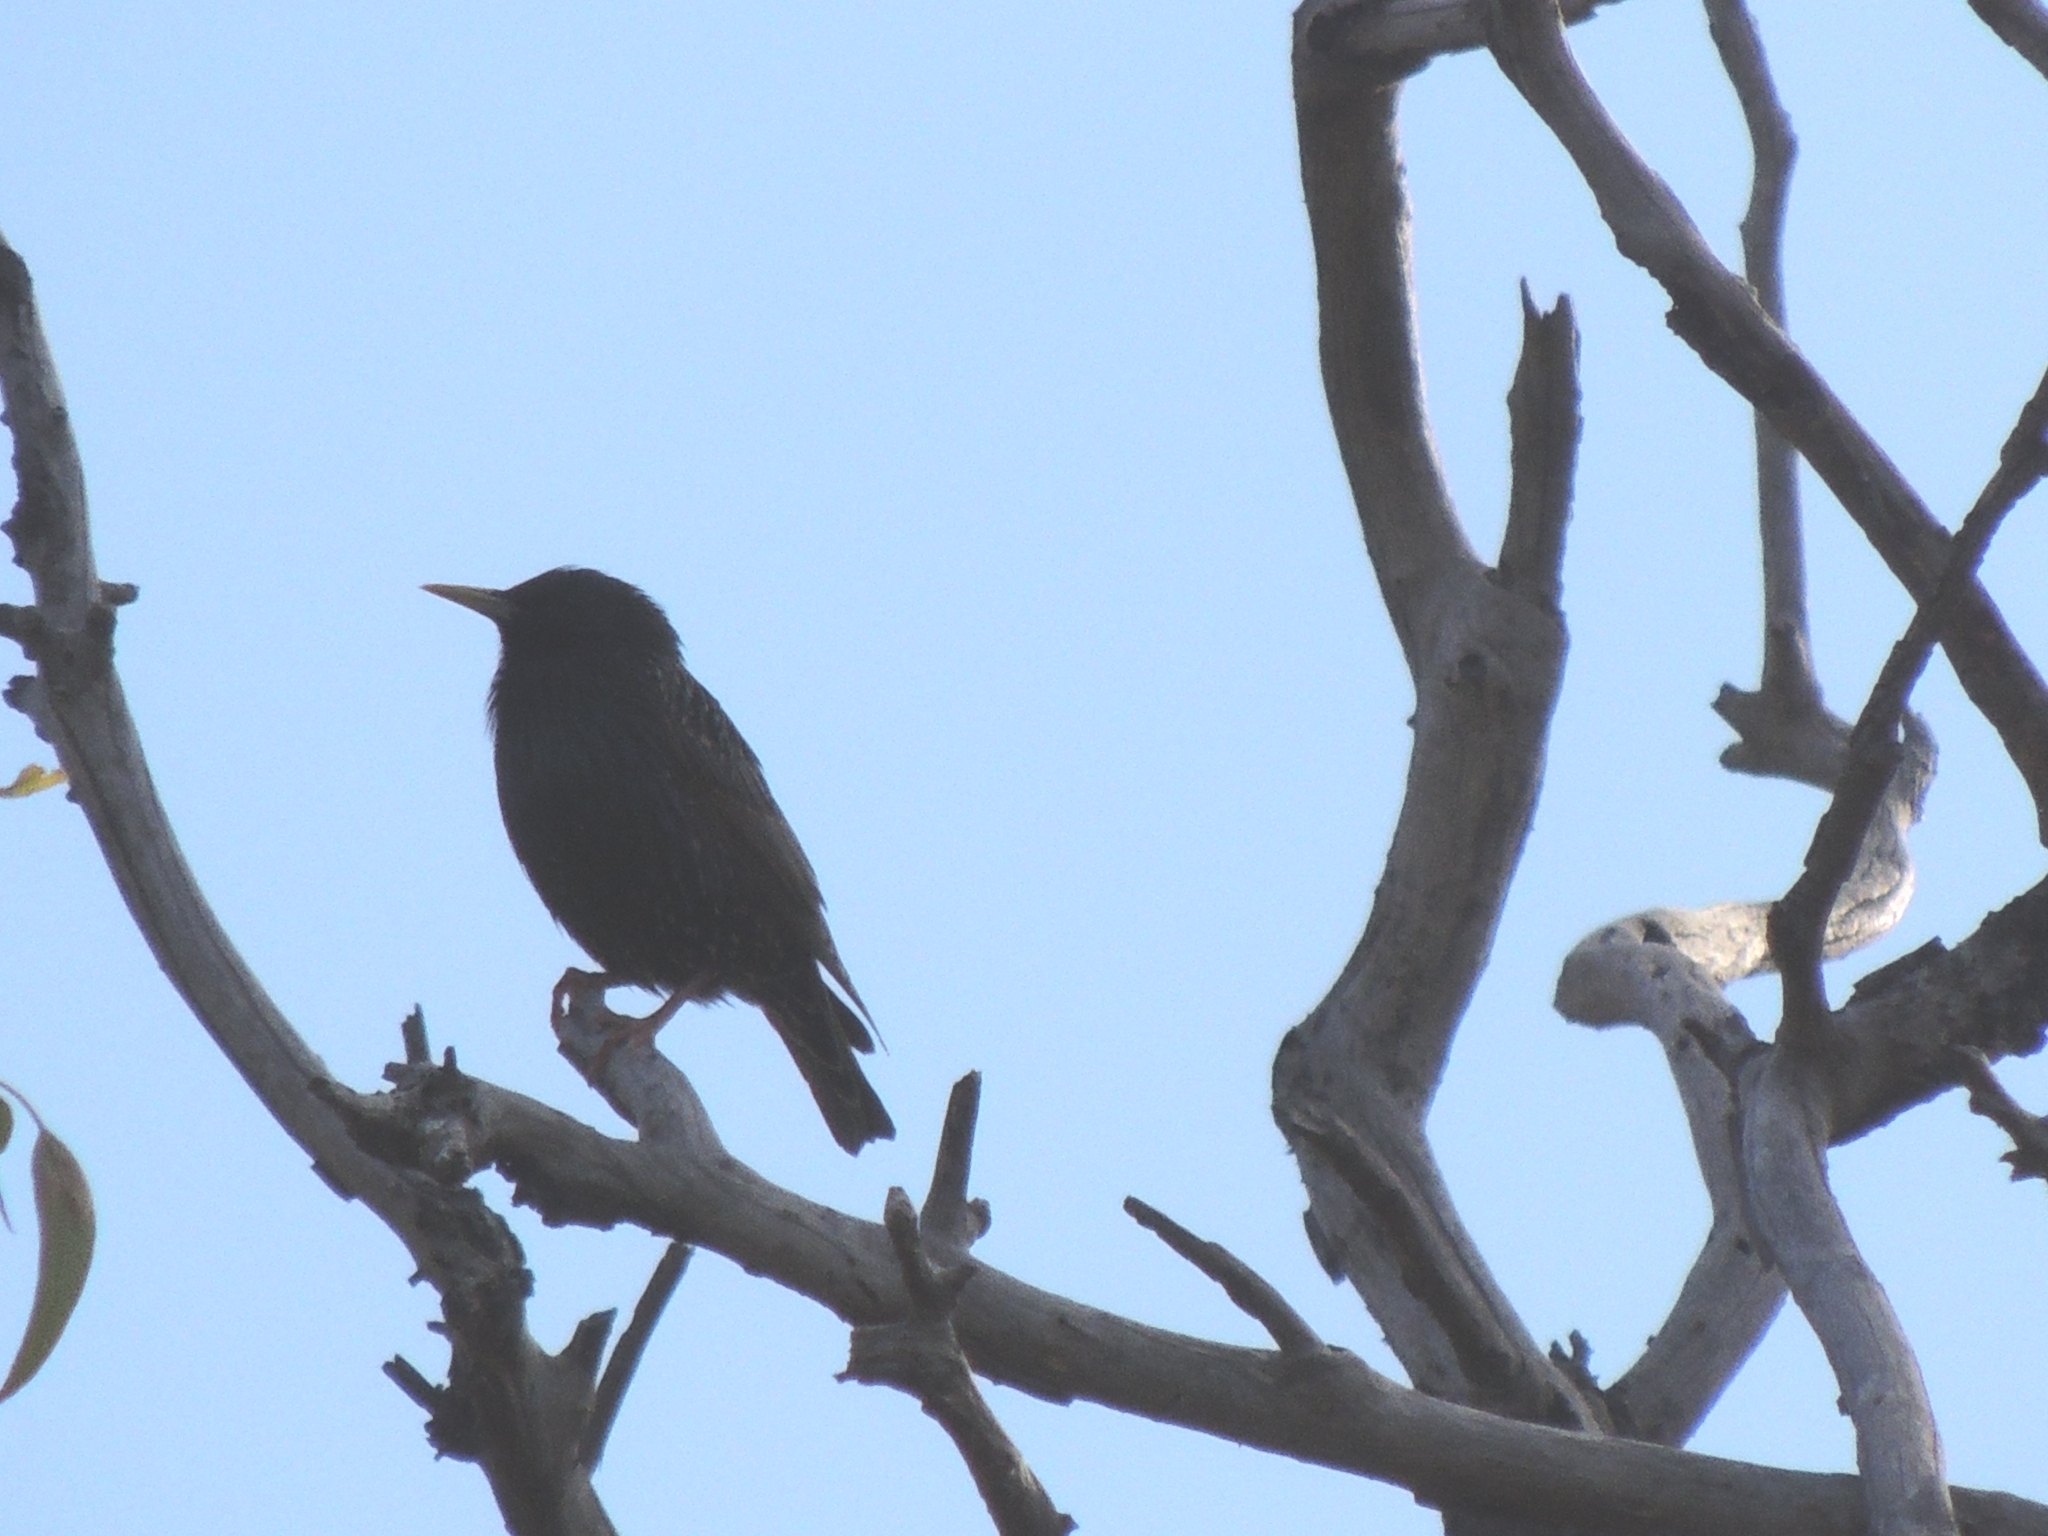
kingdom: Animalia
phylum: Chordata
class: Aves
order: Passeriformes
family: Sturnidae
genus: Sturnus
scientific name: Sturnus vulgaris
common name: Common starling
